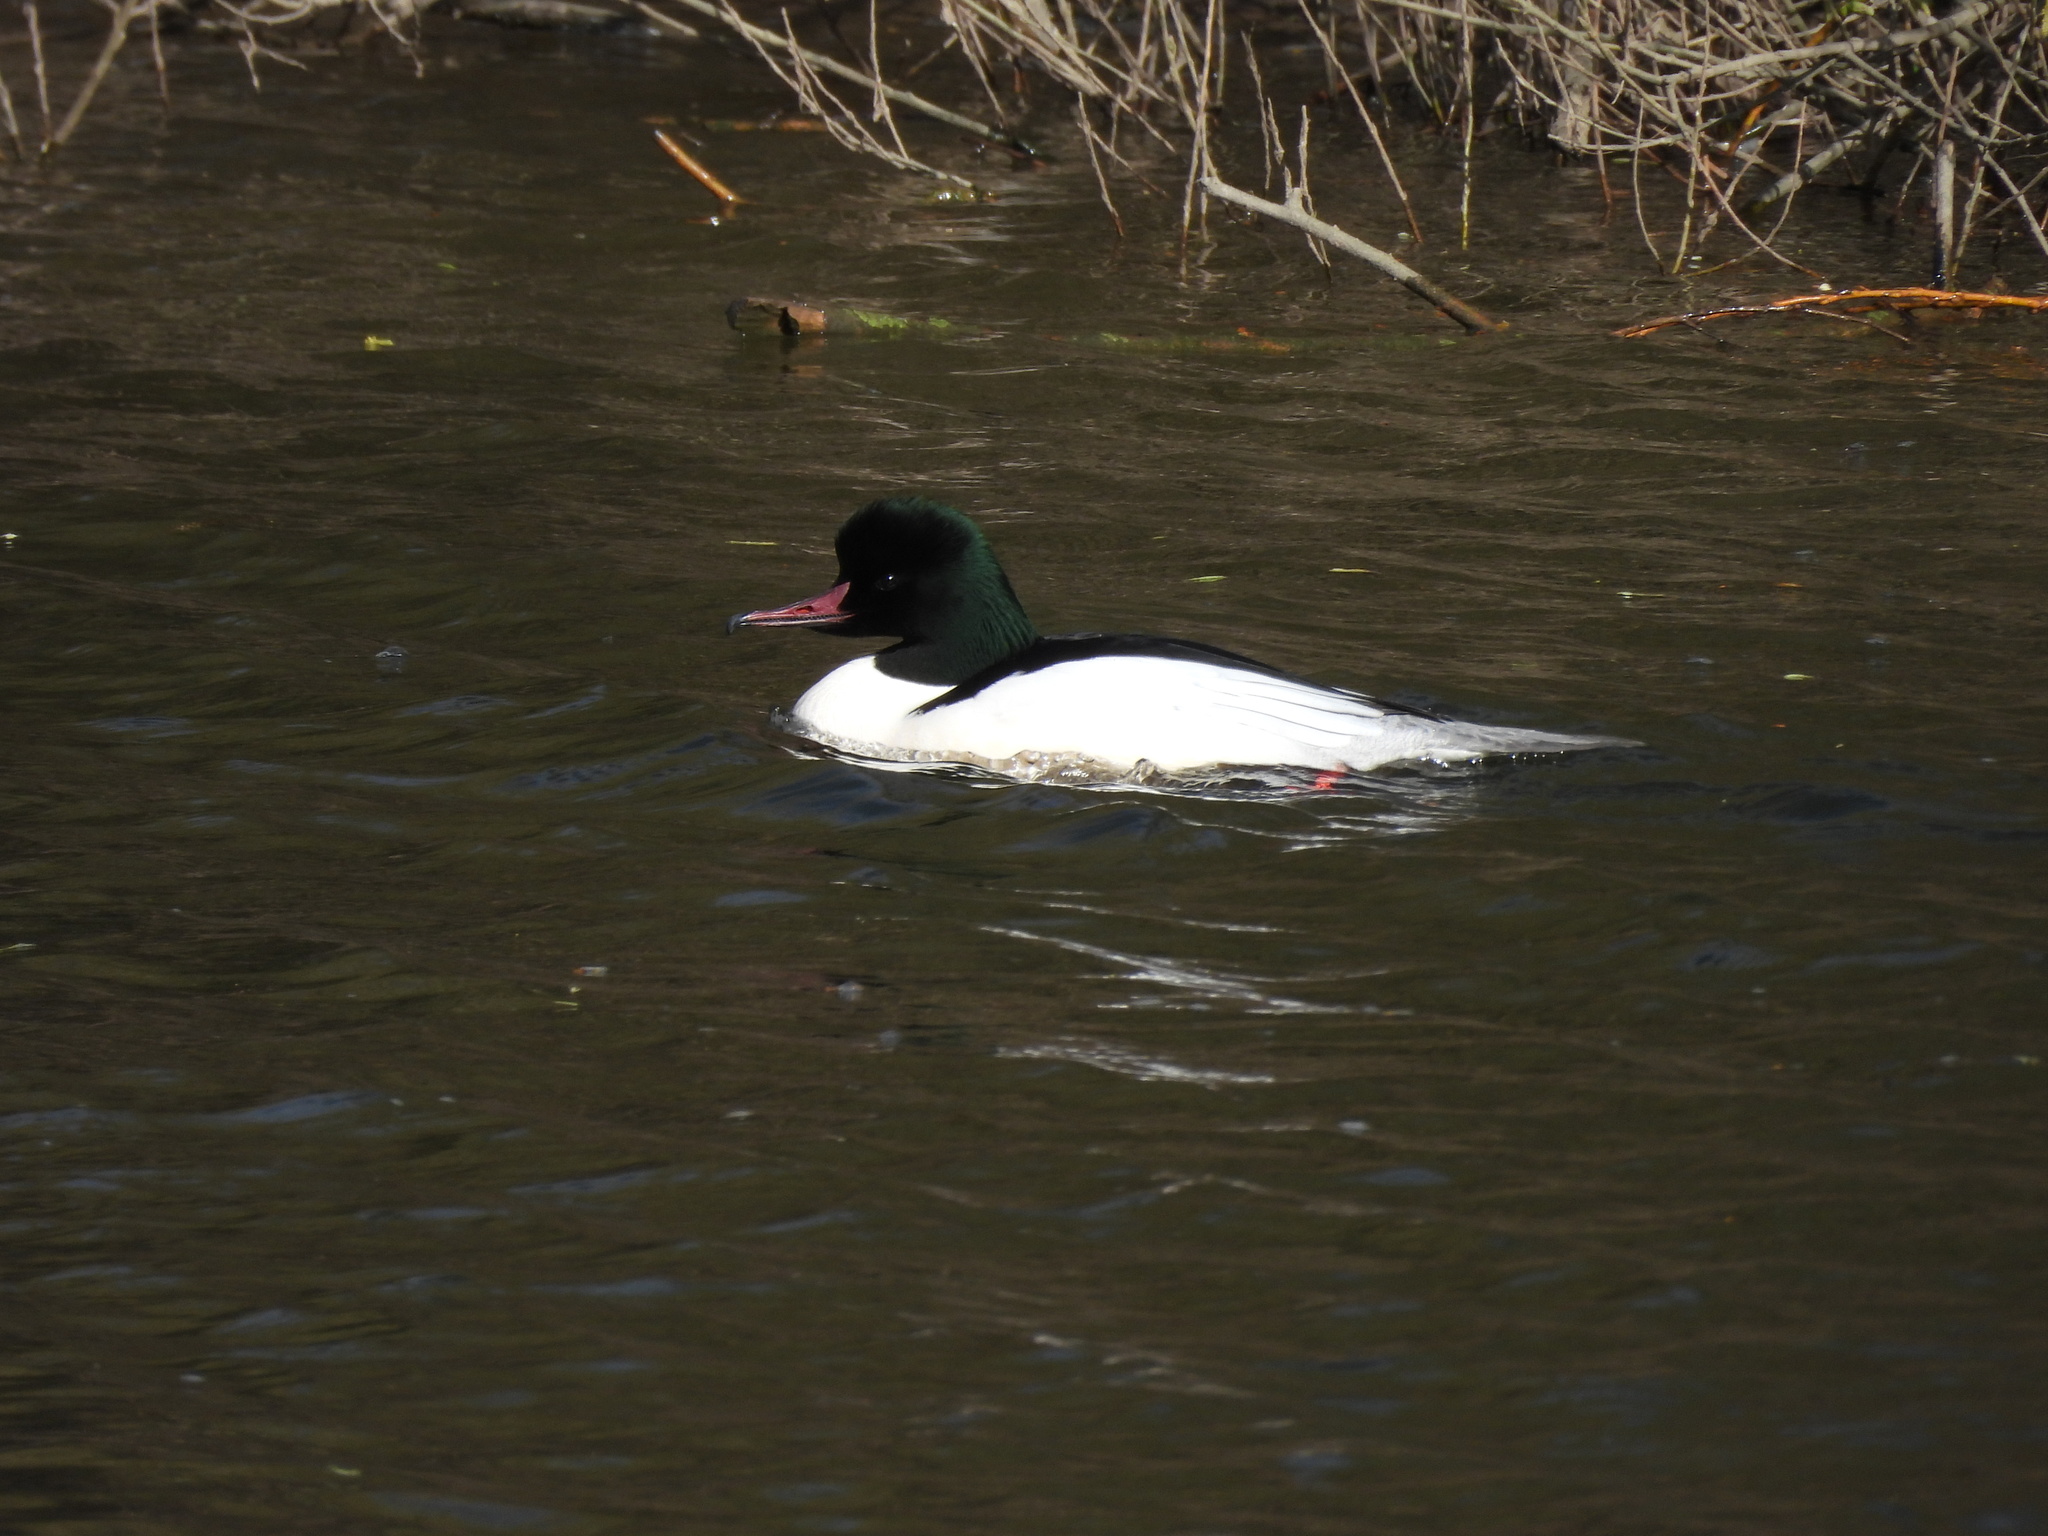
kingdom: Animalia
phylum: Chordata
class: Aves
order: Anseriformes
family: Anatidae
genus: Mergus
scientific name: Mergus merganser
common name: Common merganser
